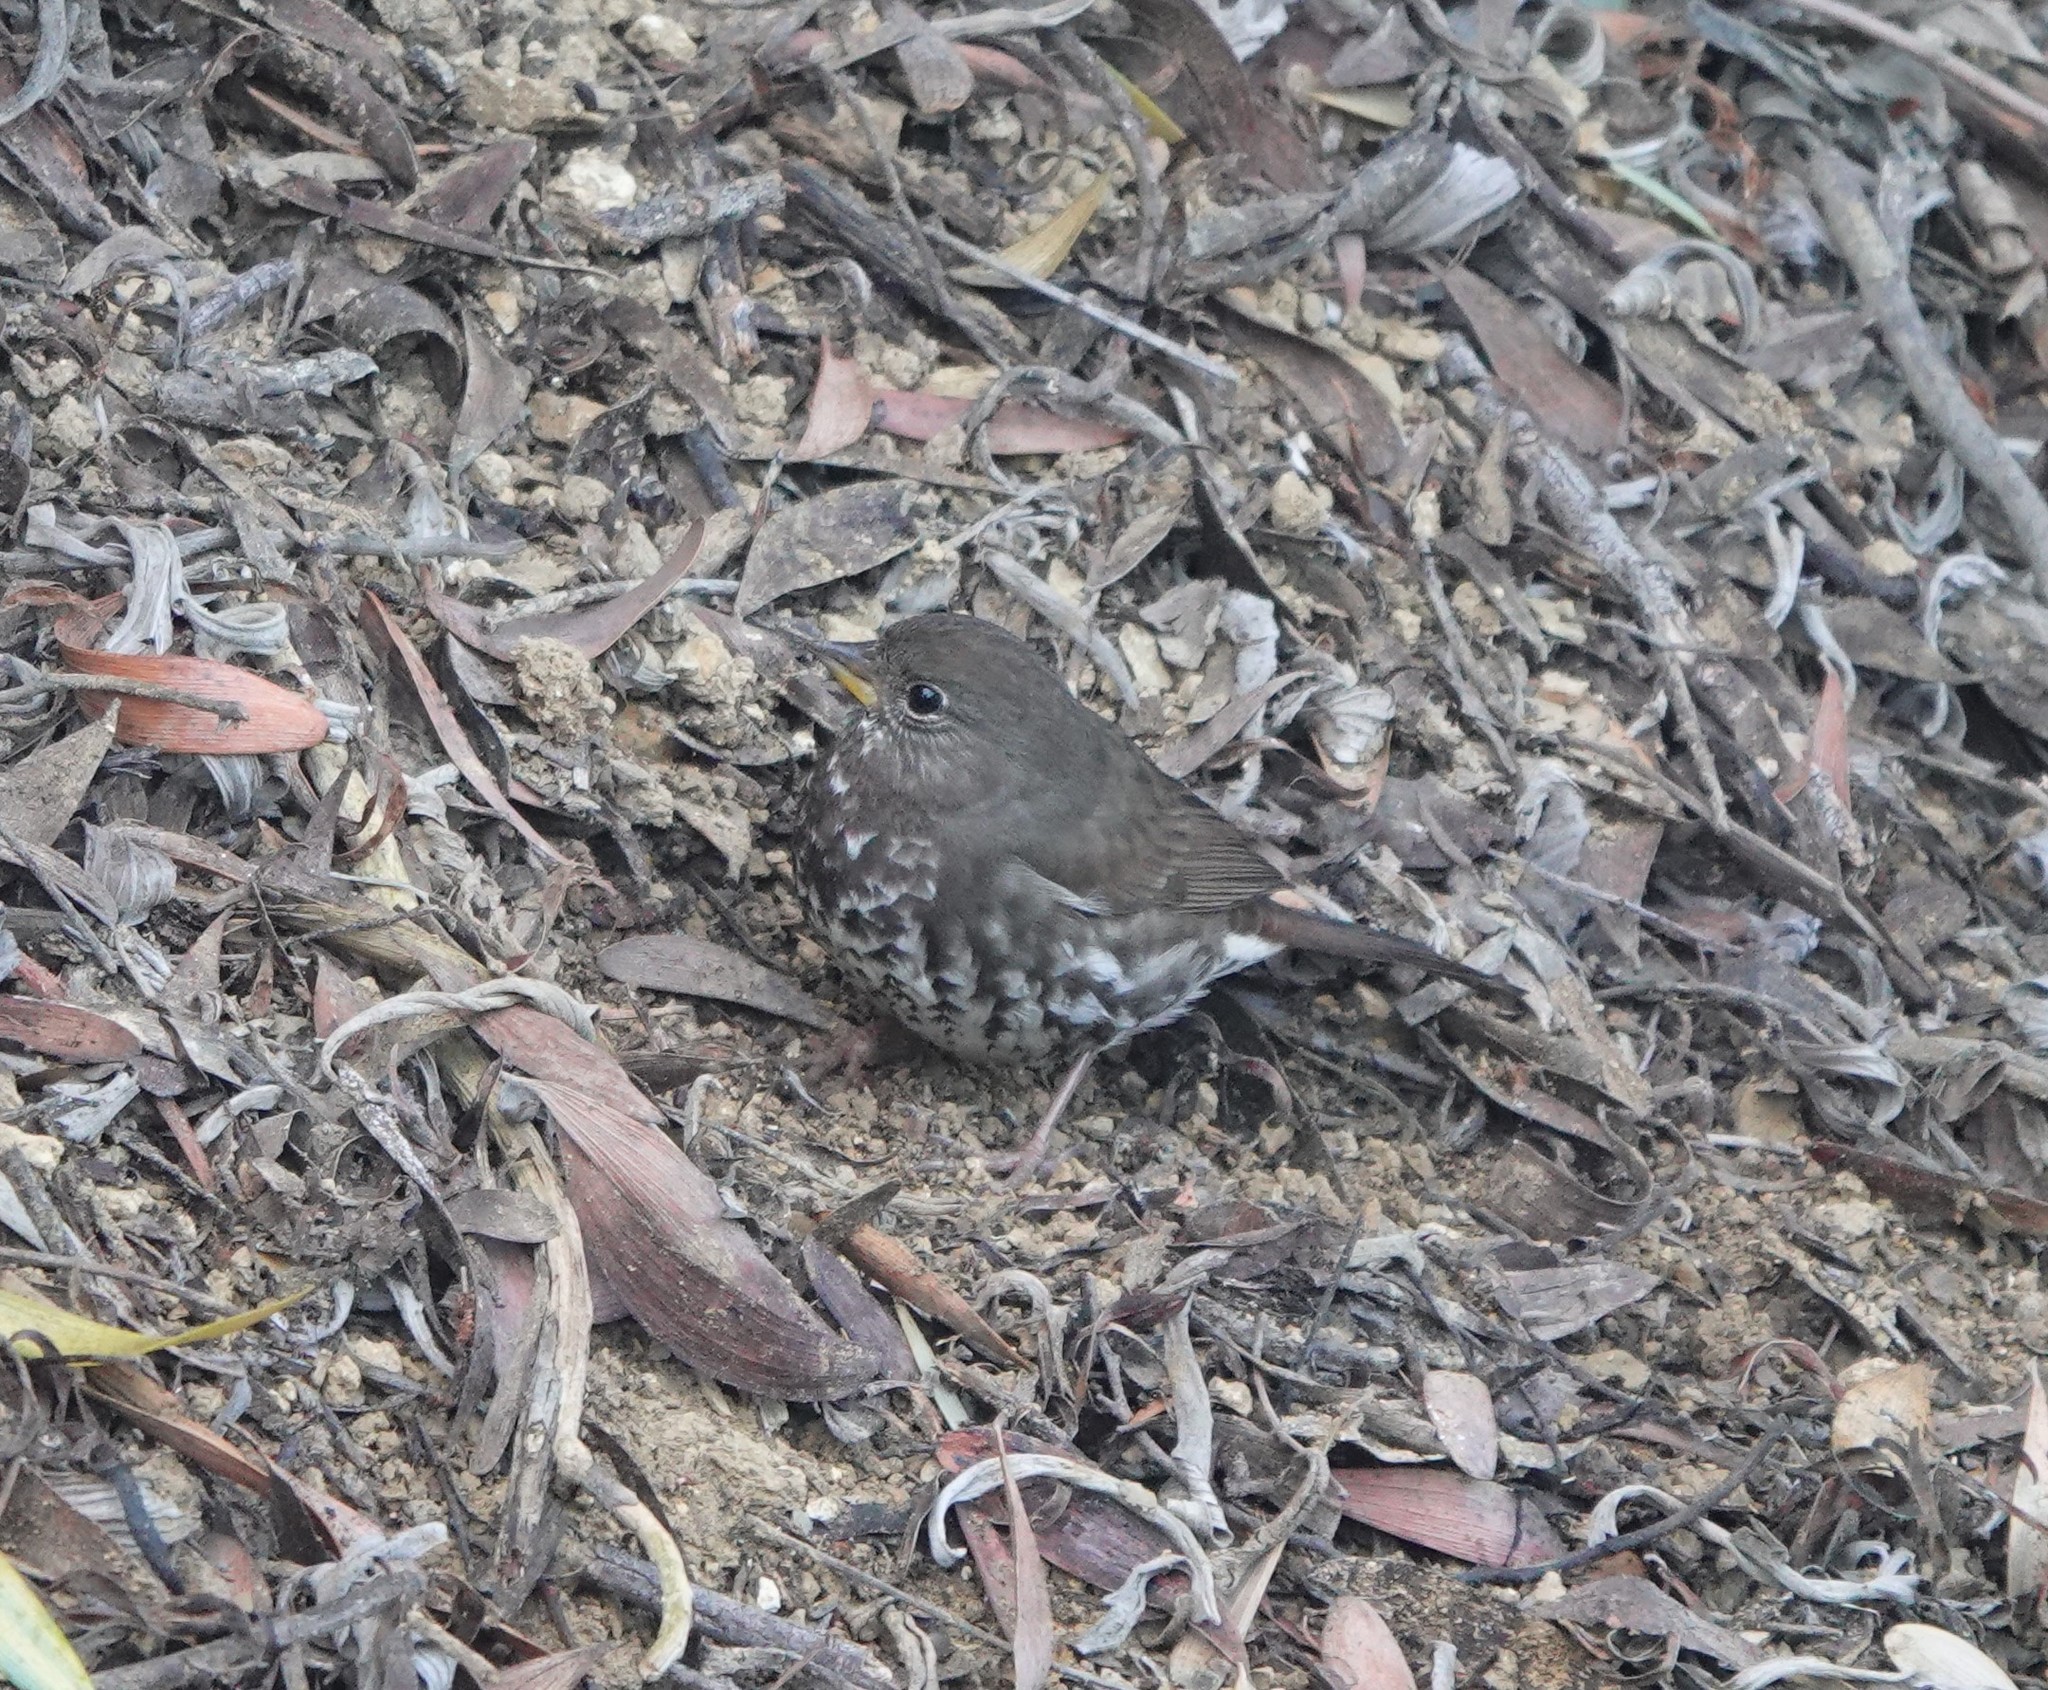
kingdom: Animalia
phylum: Chordata
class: Aves
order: Passeriformes
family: Passerellidae
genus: Passerella
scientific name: Passerella iliaca
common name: Fox sparrow
